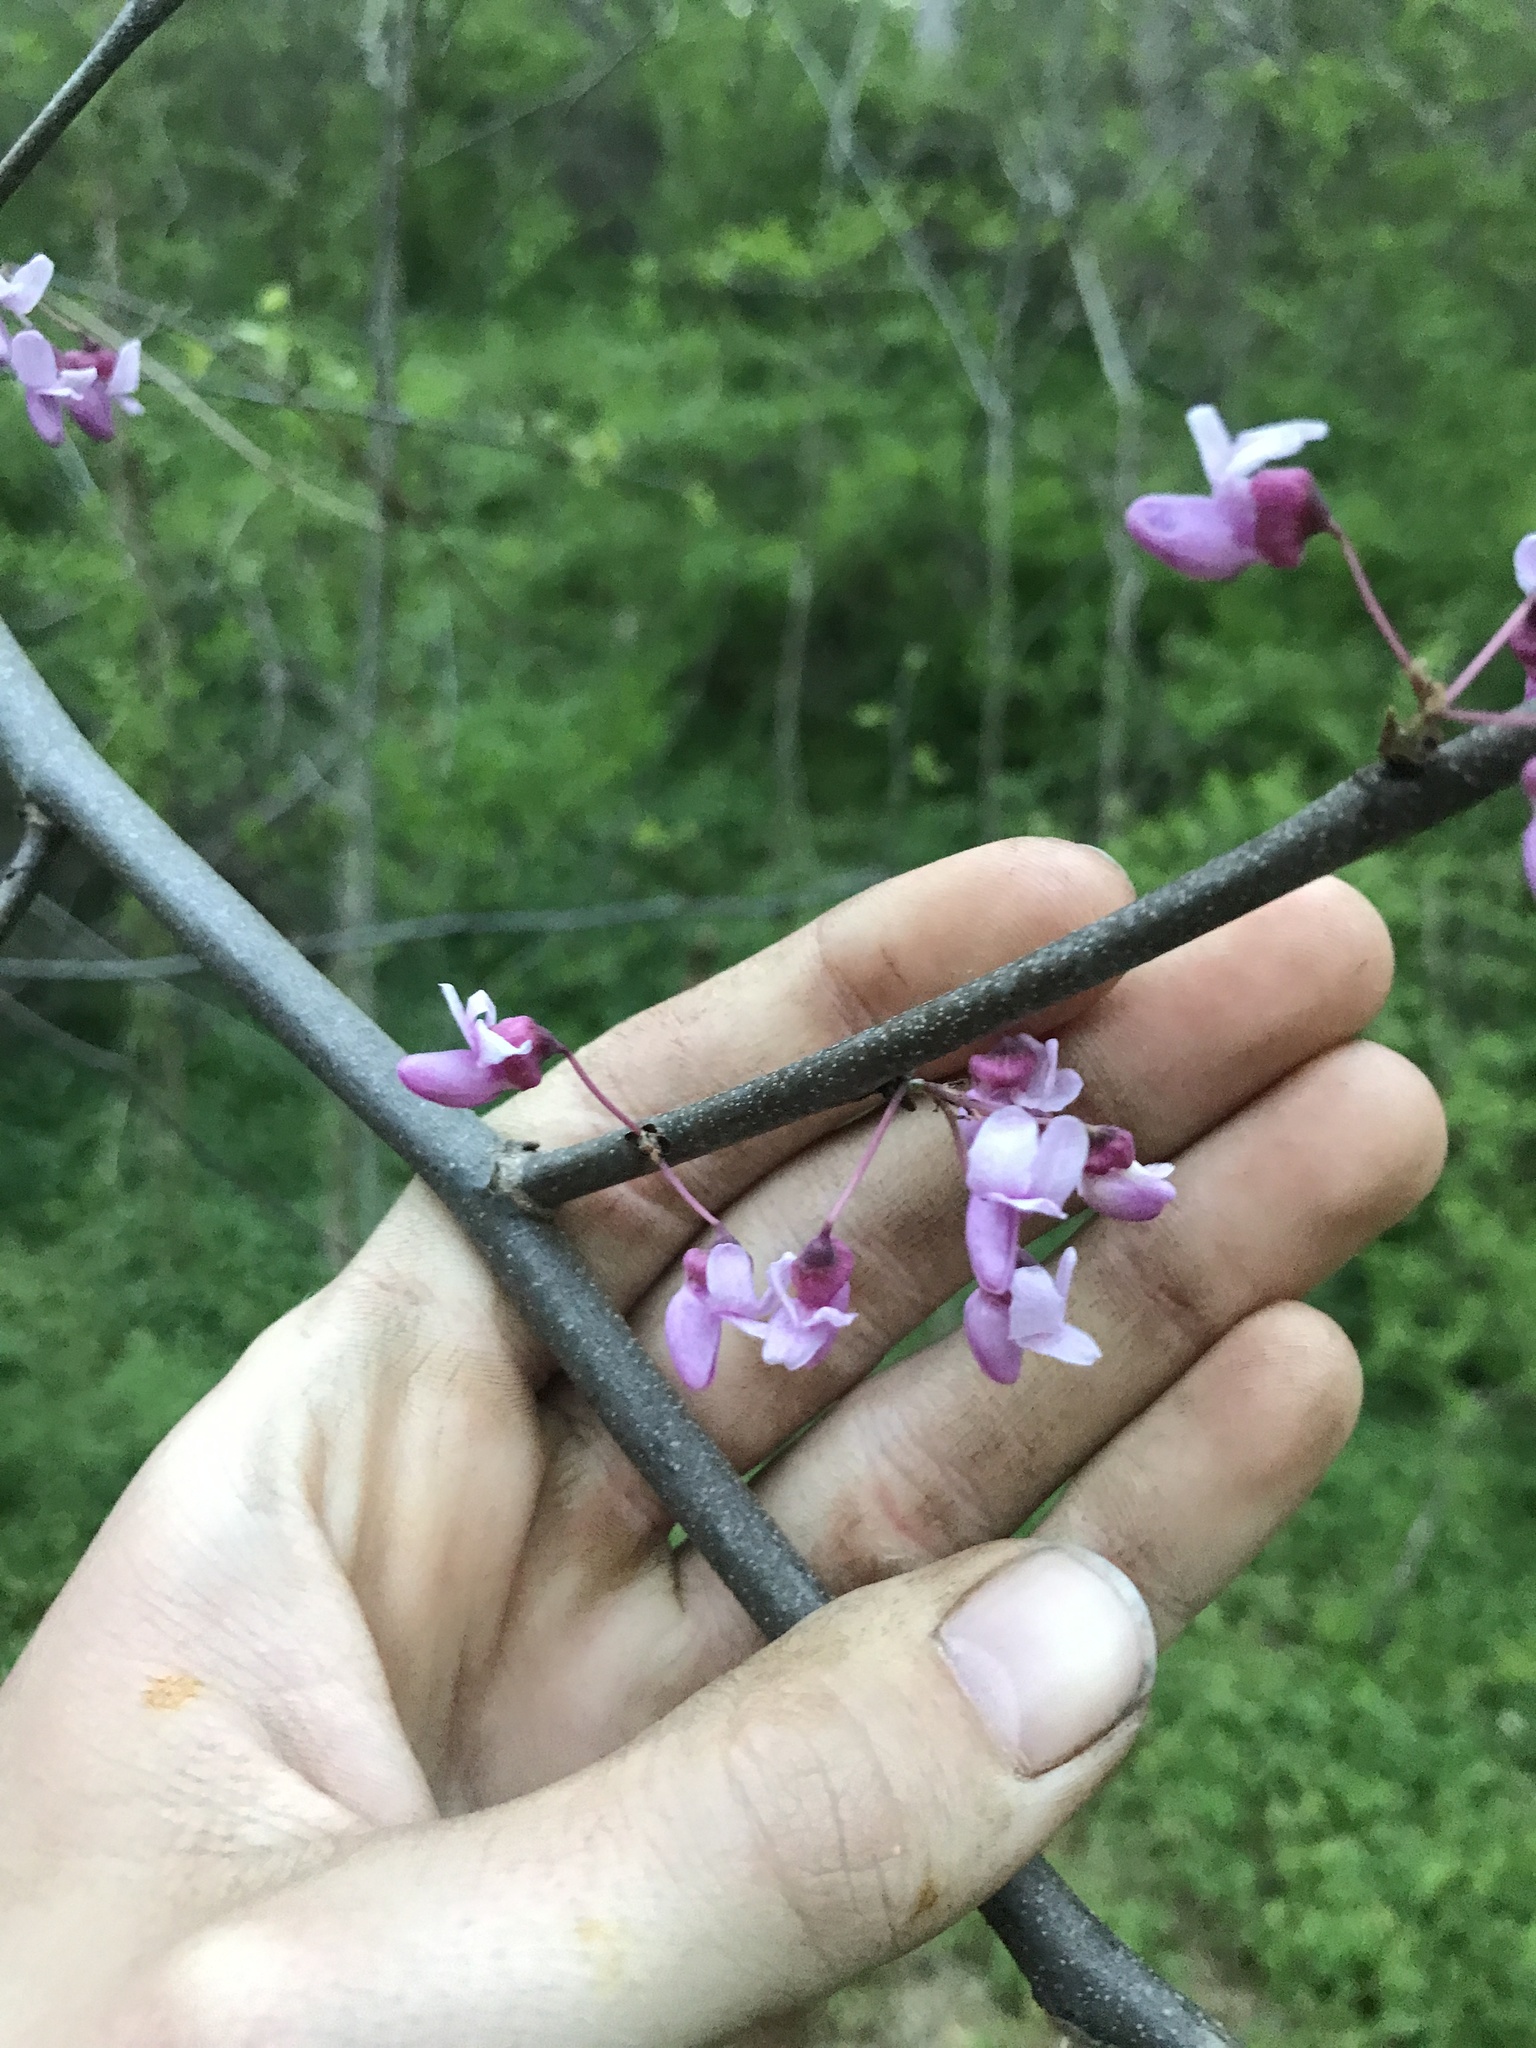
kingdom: Plantae
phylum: Tracheophyta
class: Magnoliopsida
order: Fabales
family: Fabaceae
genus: Cercis
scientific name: Cercis canadensis
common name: Eastern redbud
